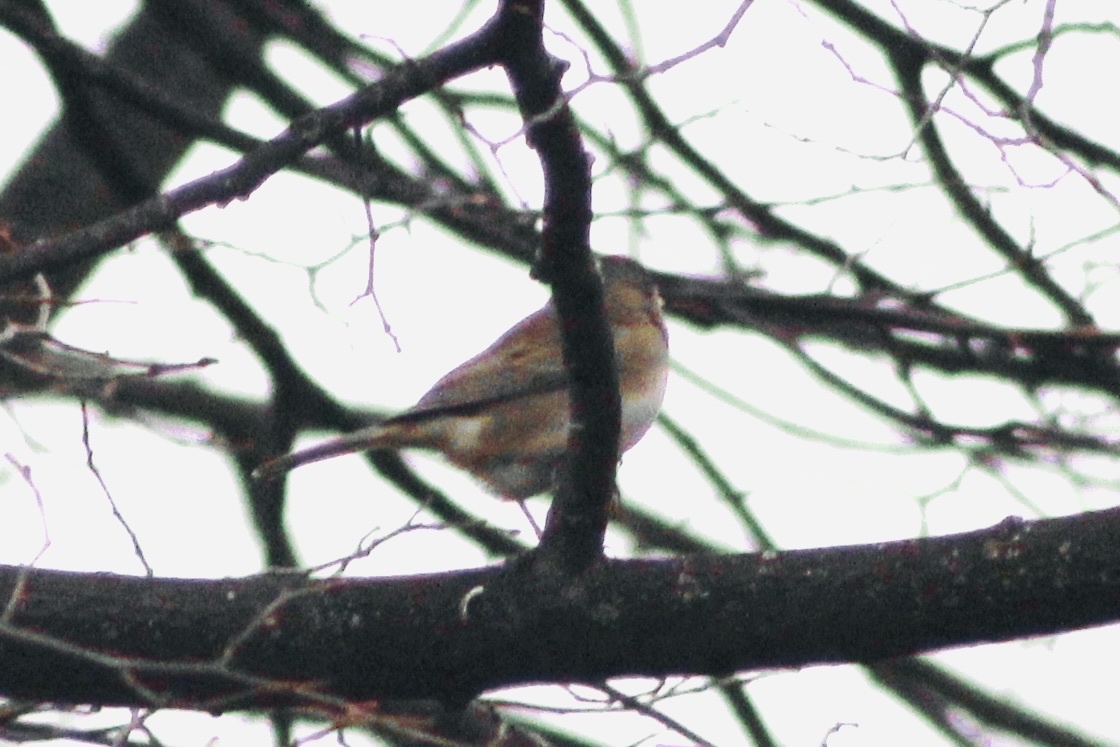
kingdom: Animalia
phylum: Chordata
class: Aves
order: Passeriformes
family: Passerellidae
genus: Junco
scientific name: Junco hyemalis
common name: Dark-eyed junco
